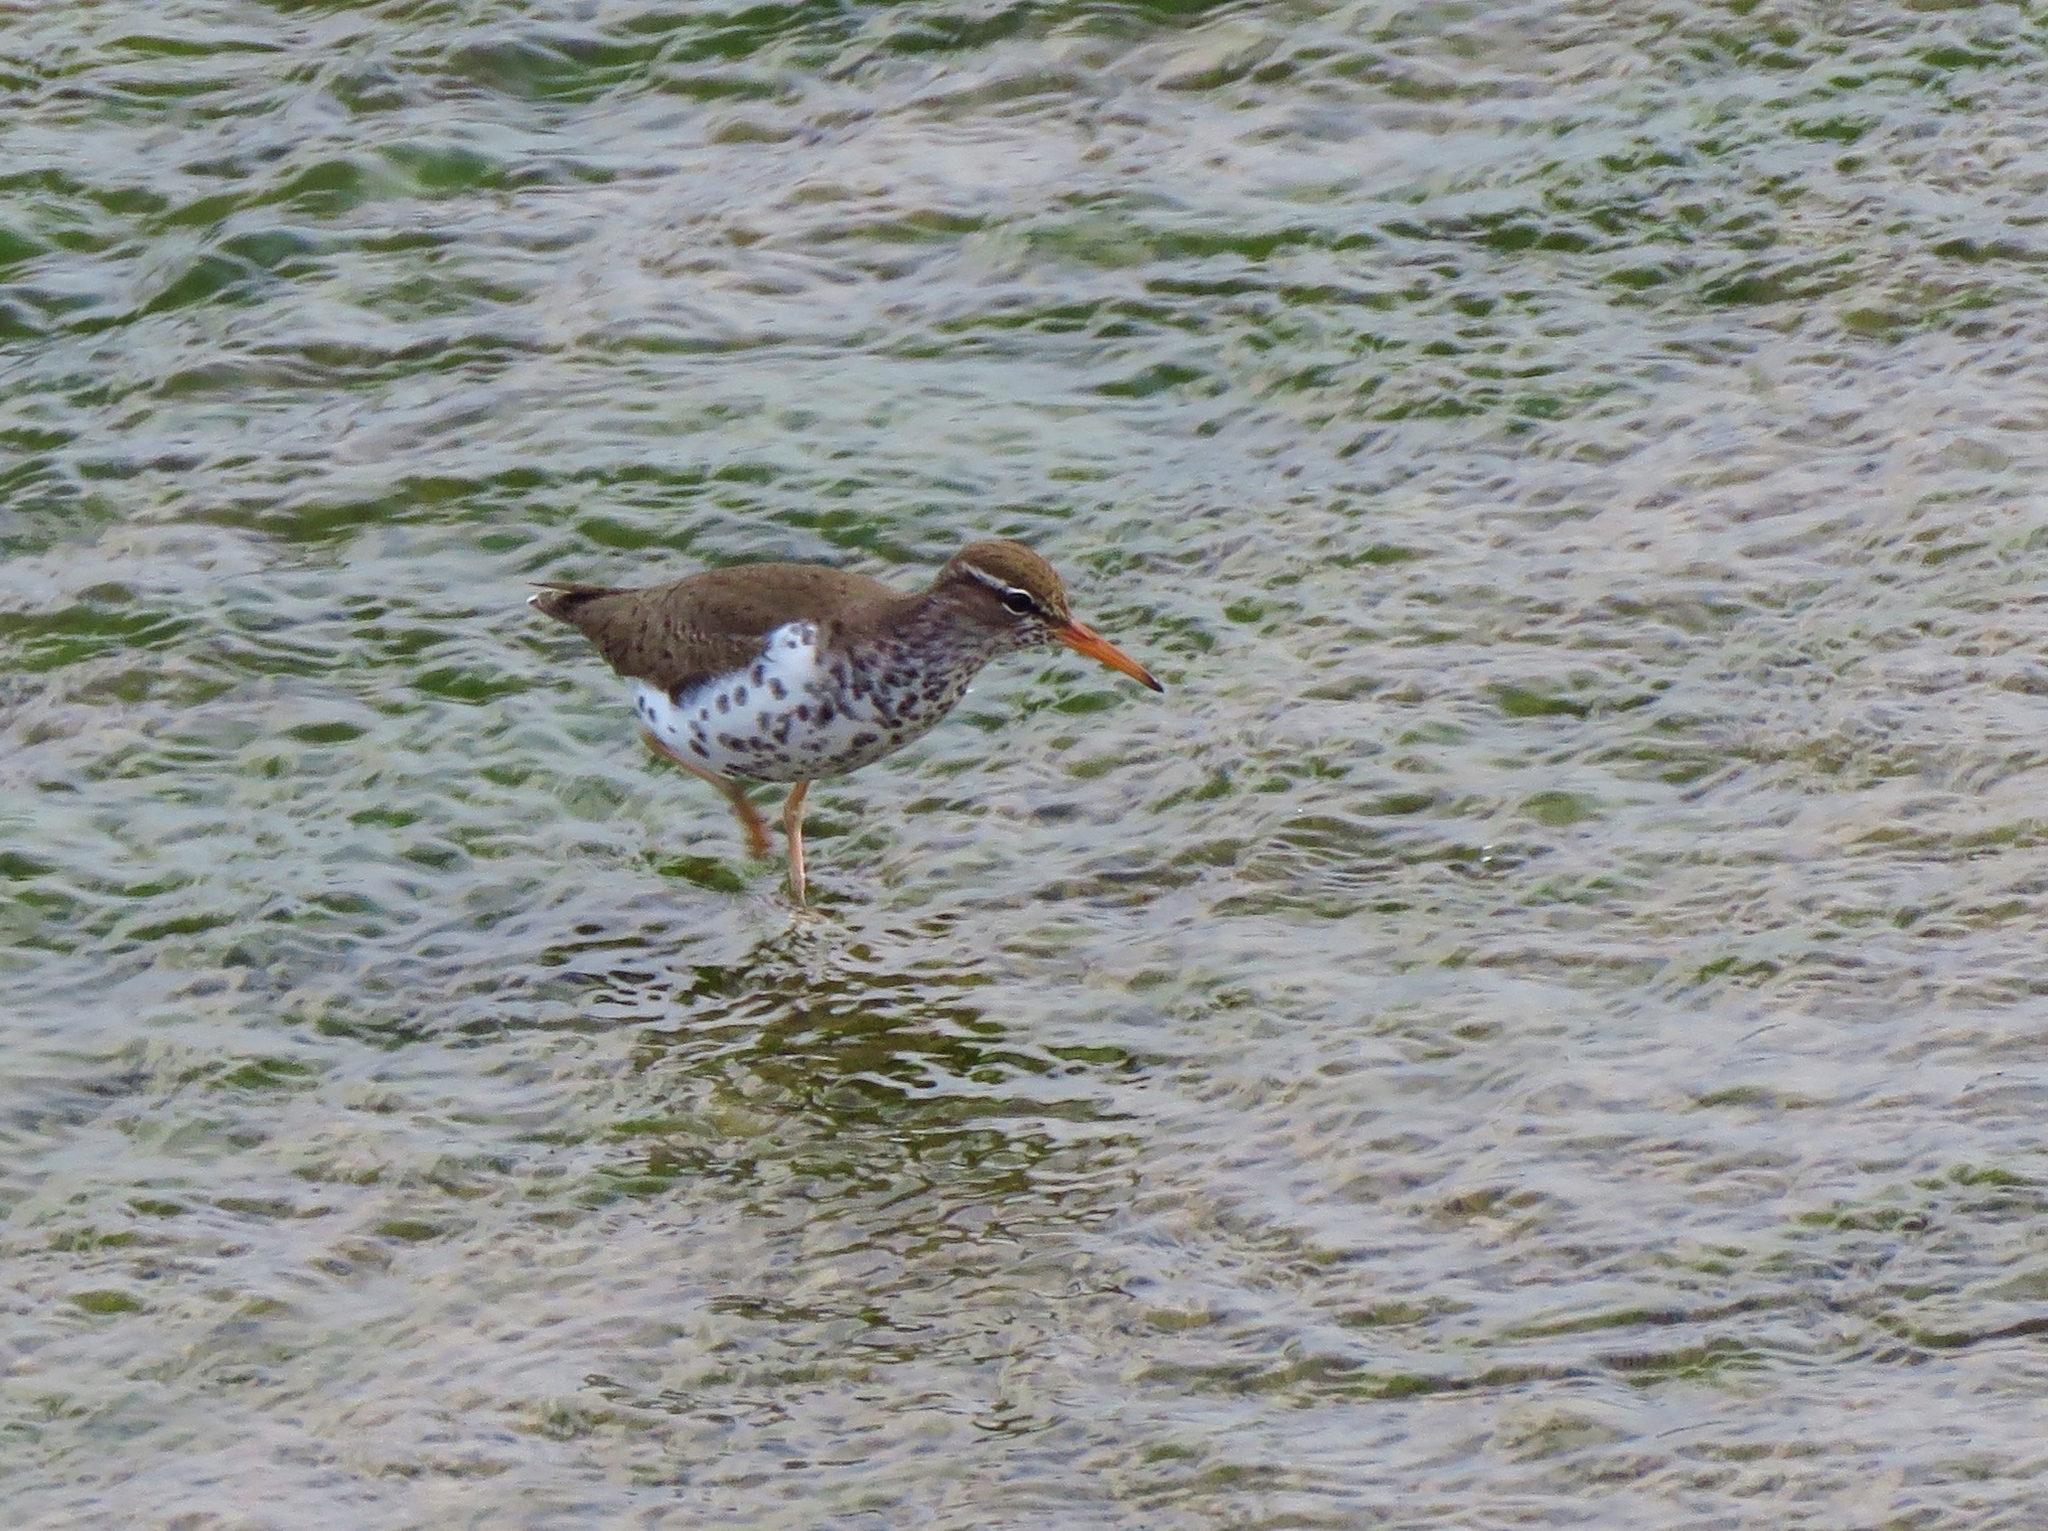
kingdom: Animalia
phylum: Chordata
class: Aves
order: Charadriiformes
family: Scolopacidae
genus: Actitis
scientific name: Actitis macularius
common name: Spotted sandpiper
